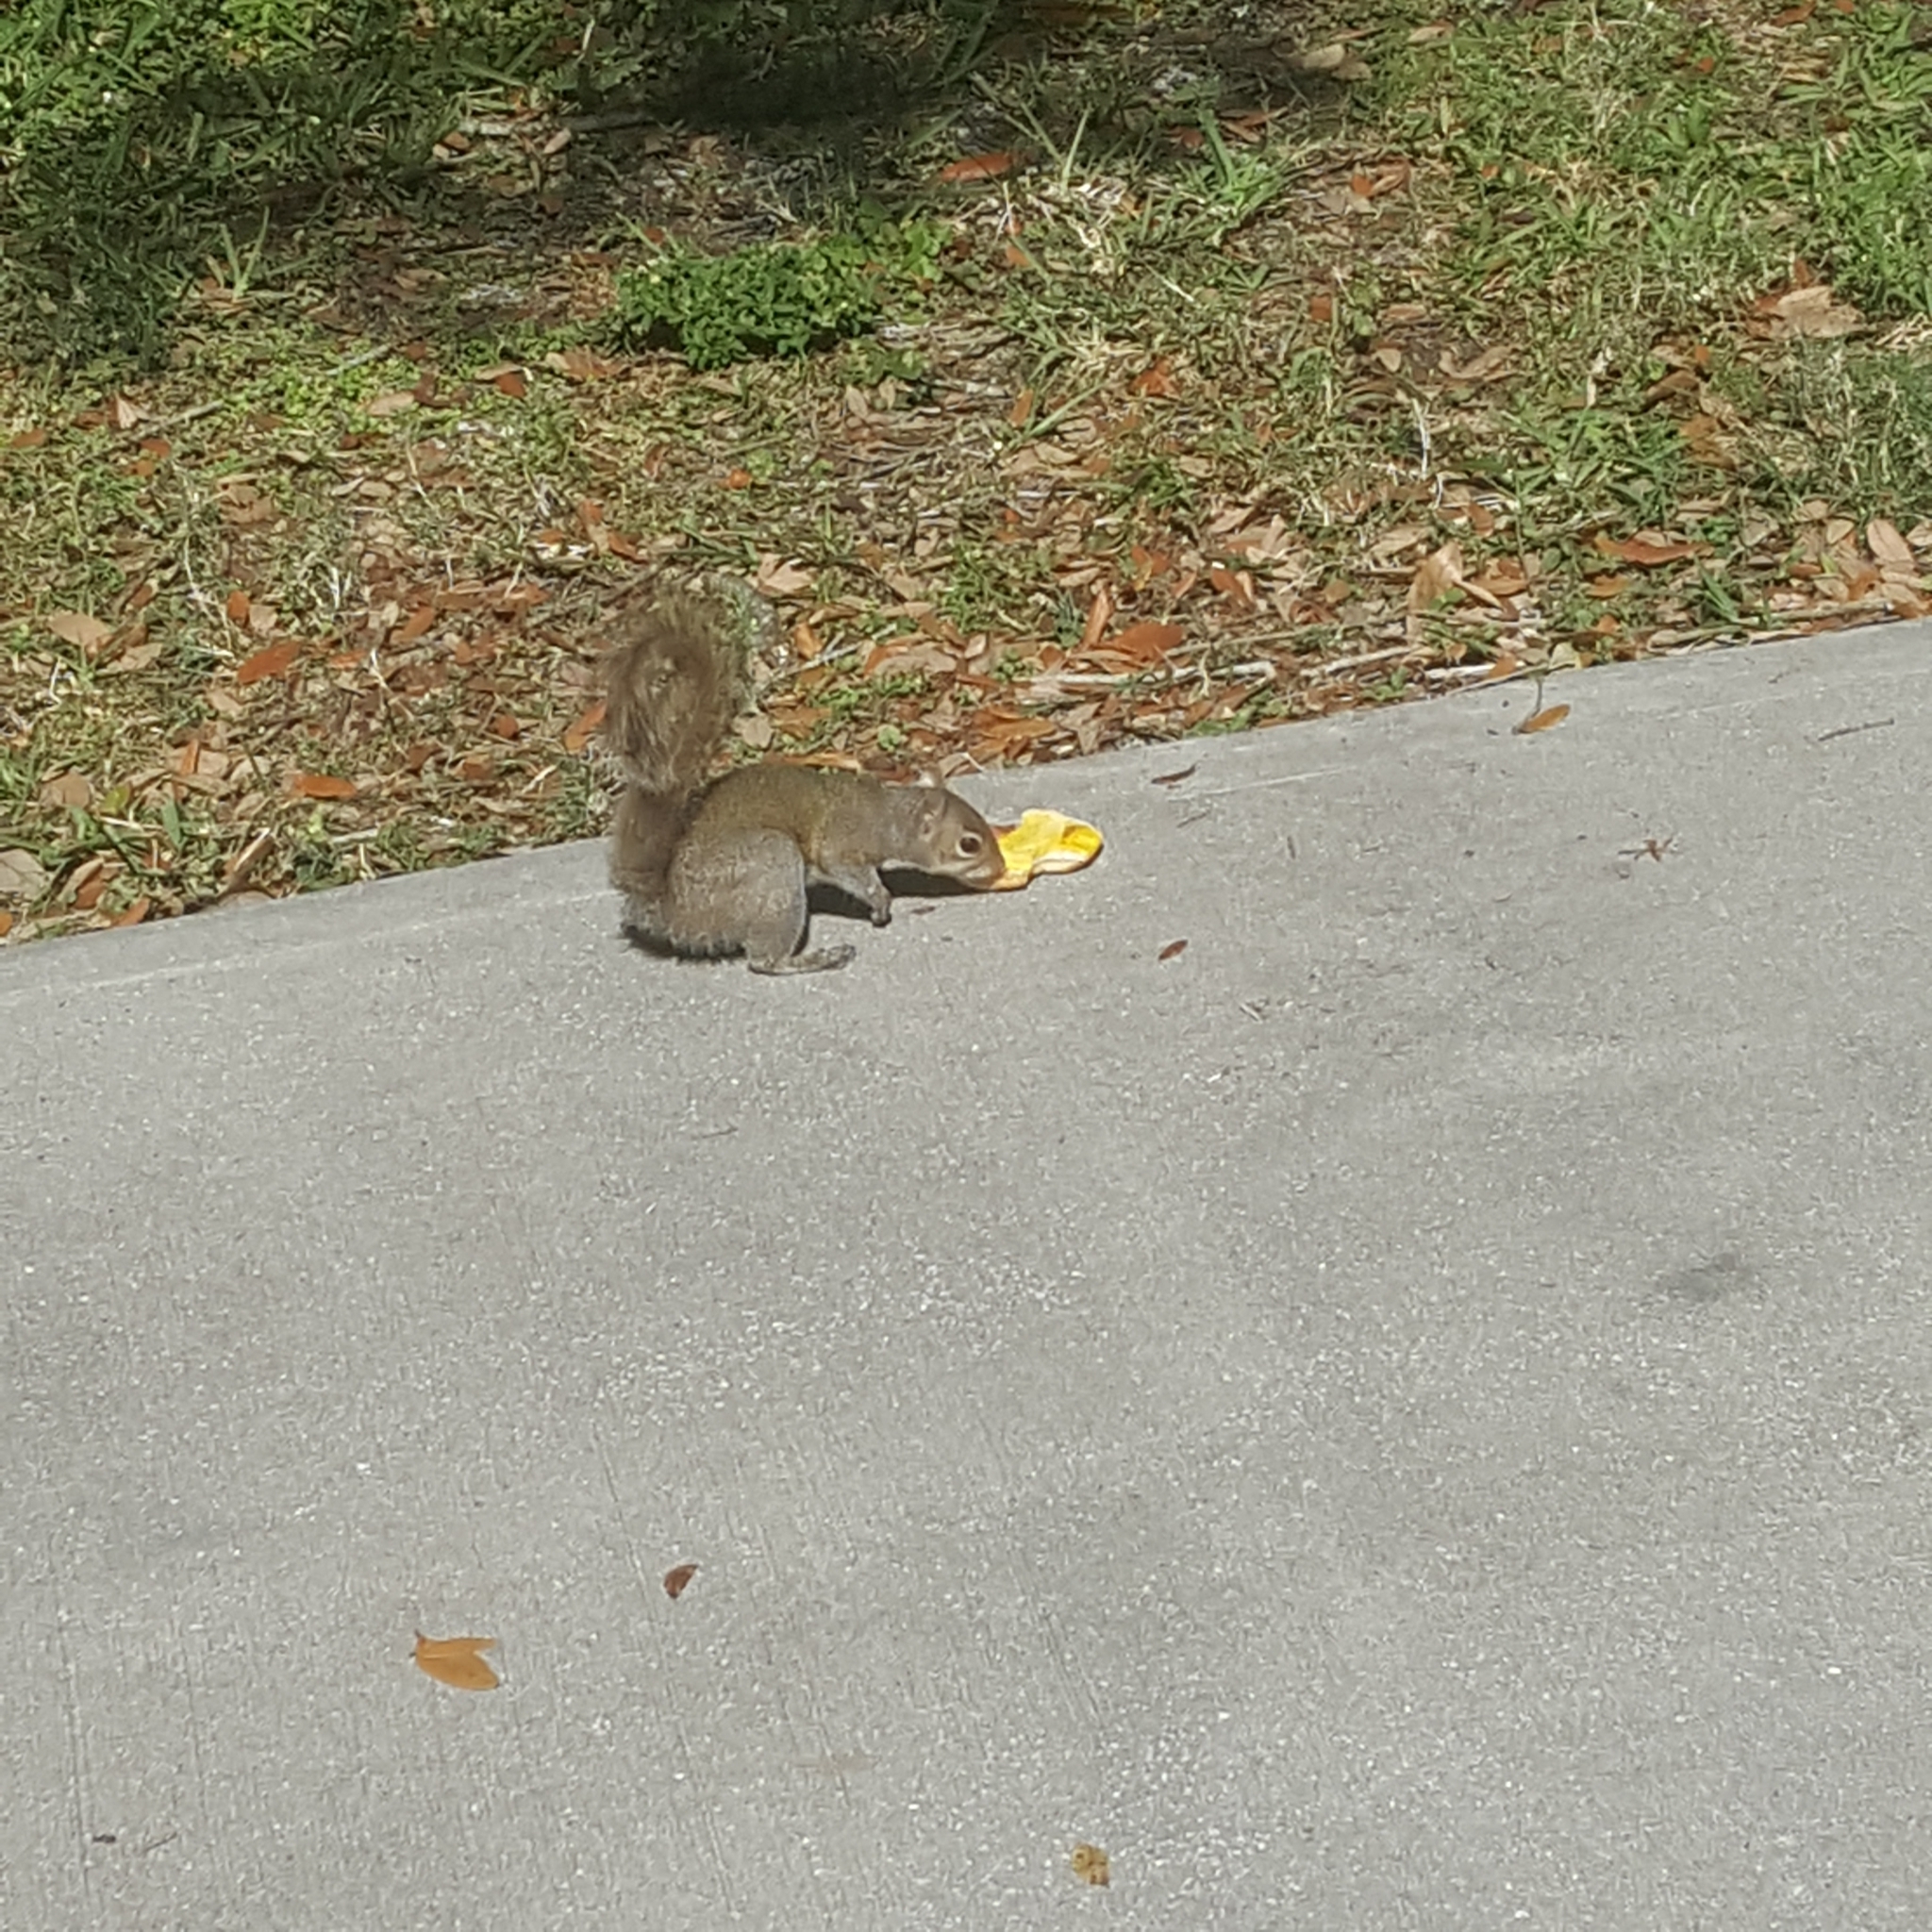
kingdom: Animalia
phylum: Chordata
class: Mammalia
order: Rodentia
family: Sciuridae
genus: Sciurus
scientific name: Sciurus carolinensis
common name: Eastern gray squirrel
